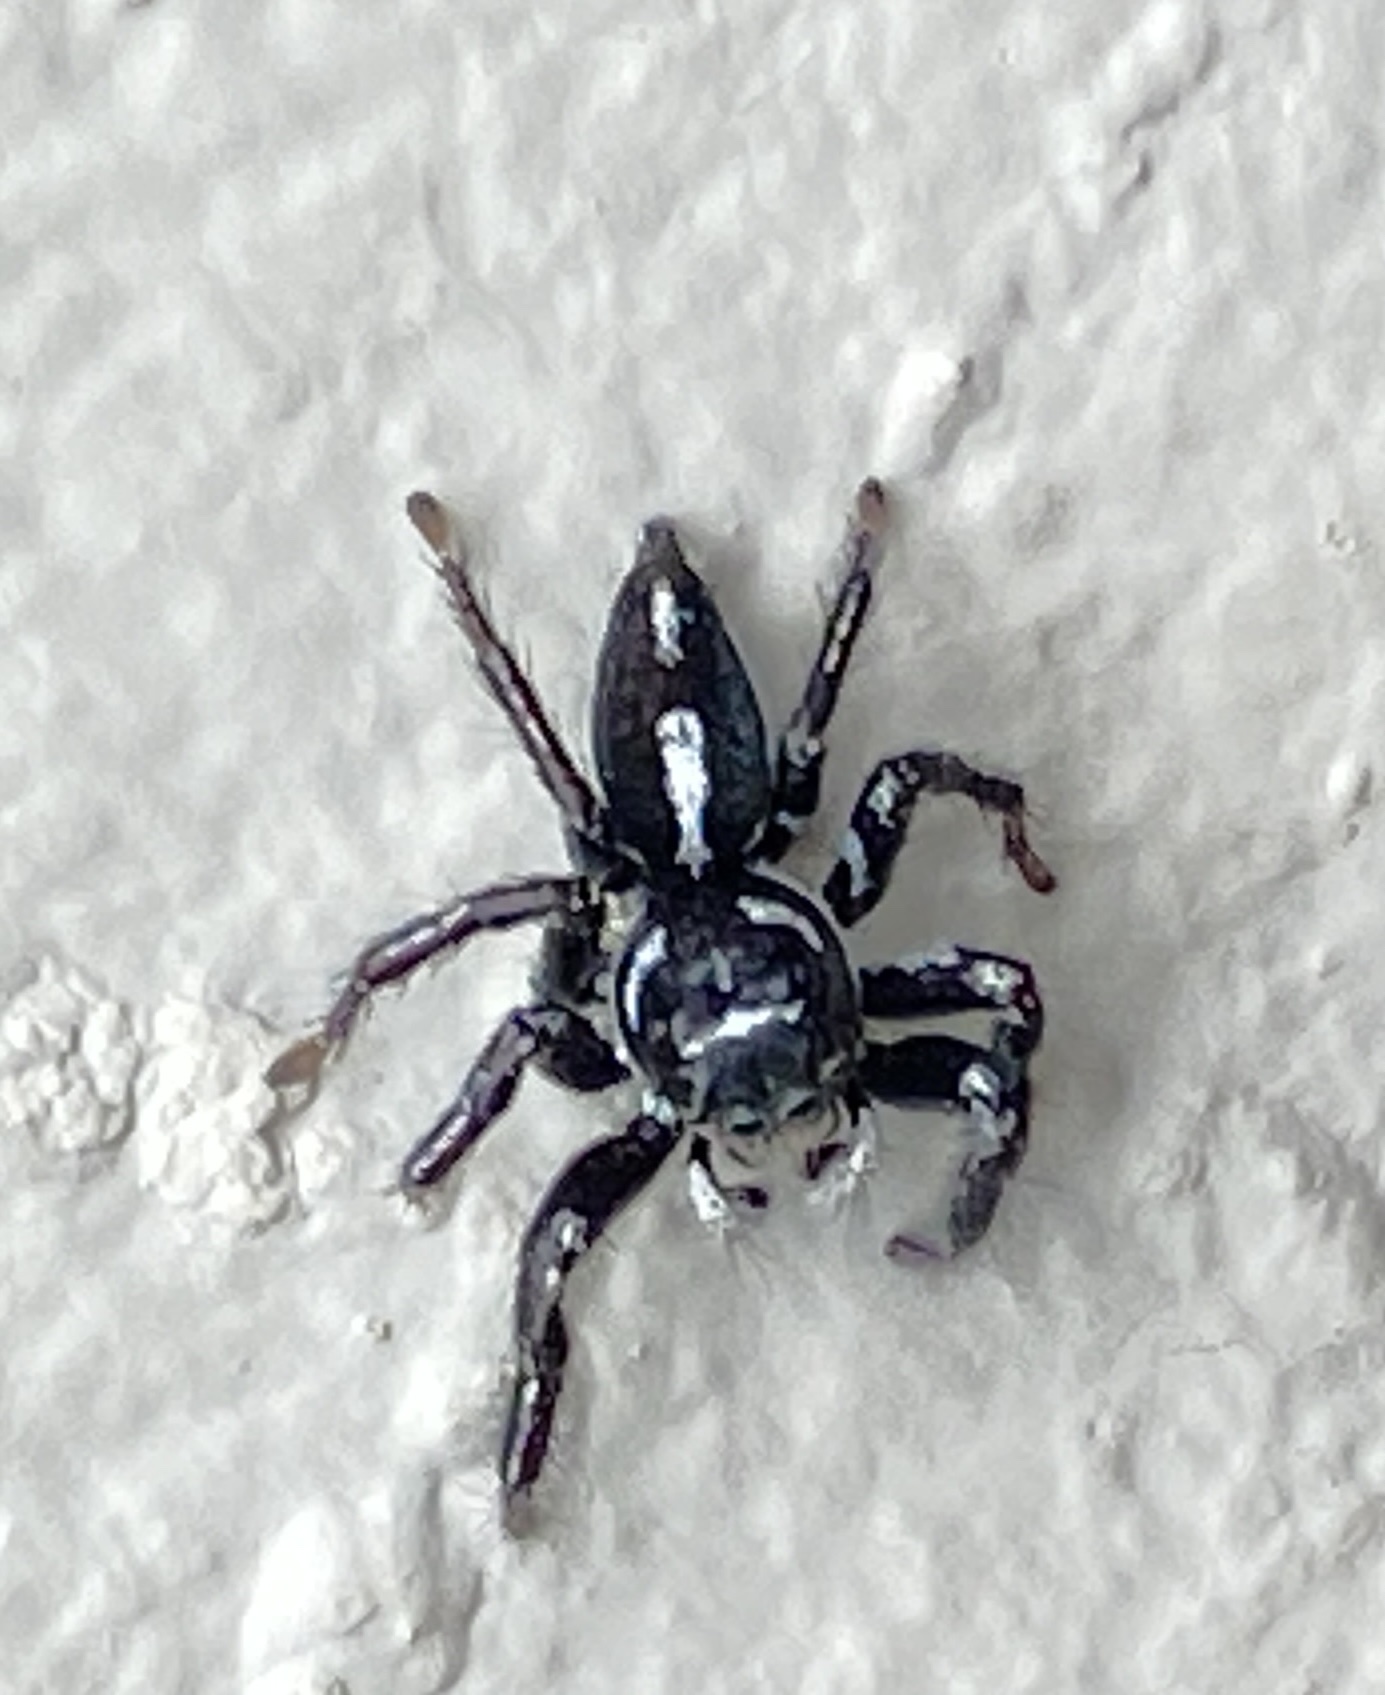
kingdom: Animalia
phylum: Arthropoda
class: Arachnida
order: Araneae
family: Salticidae
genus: Hyllus
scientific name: Hyllus argyrotoxus
